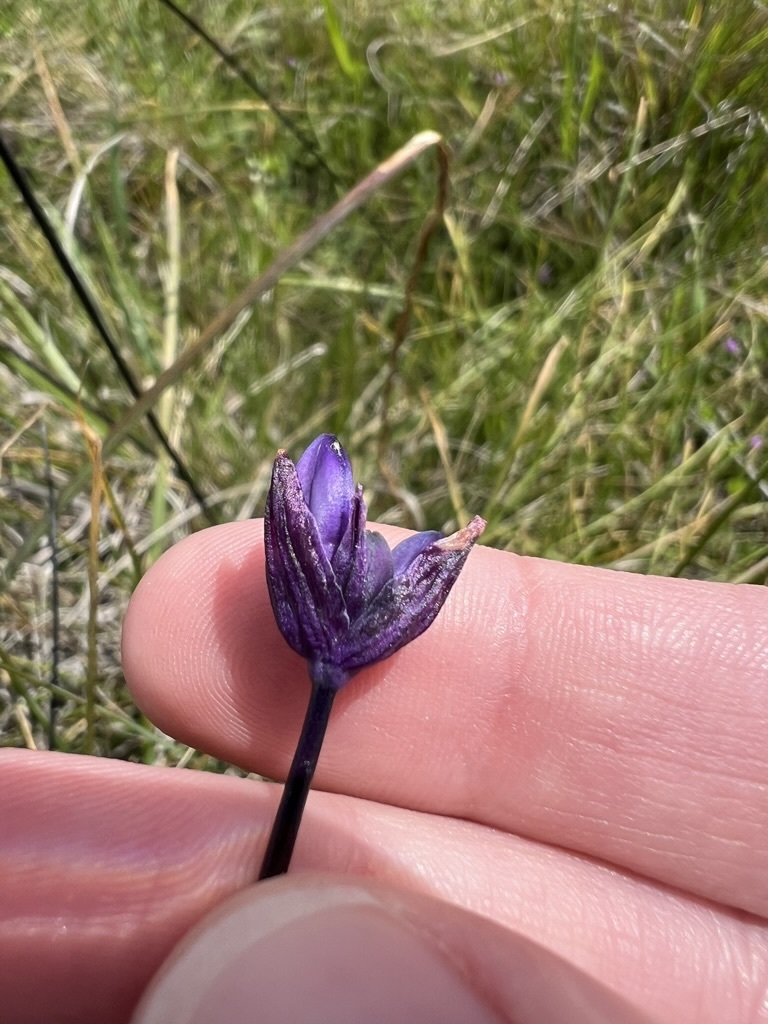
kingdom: Plantae
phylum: Tracheophyta
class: Liliopsida
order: Asparagales
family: Asparagaceae
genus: Dipterostemon
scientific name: Dipterostemon capitatus
